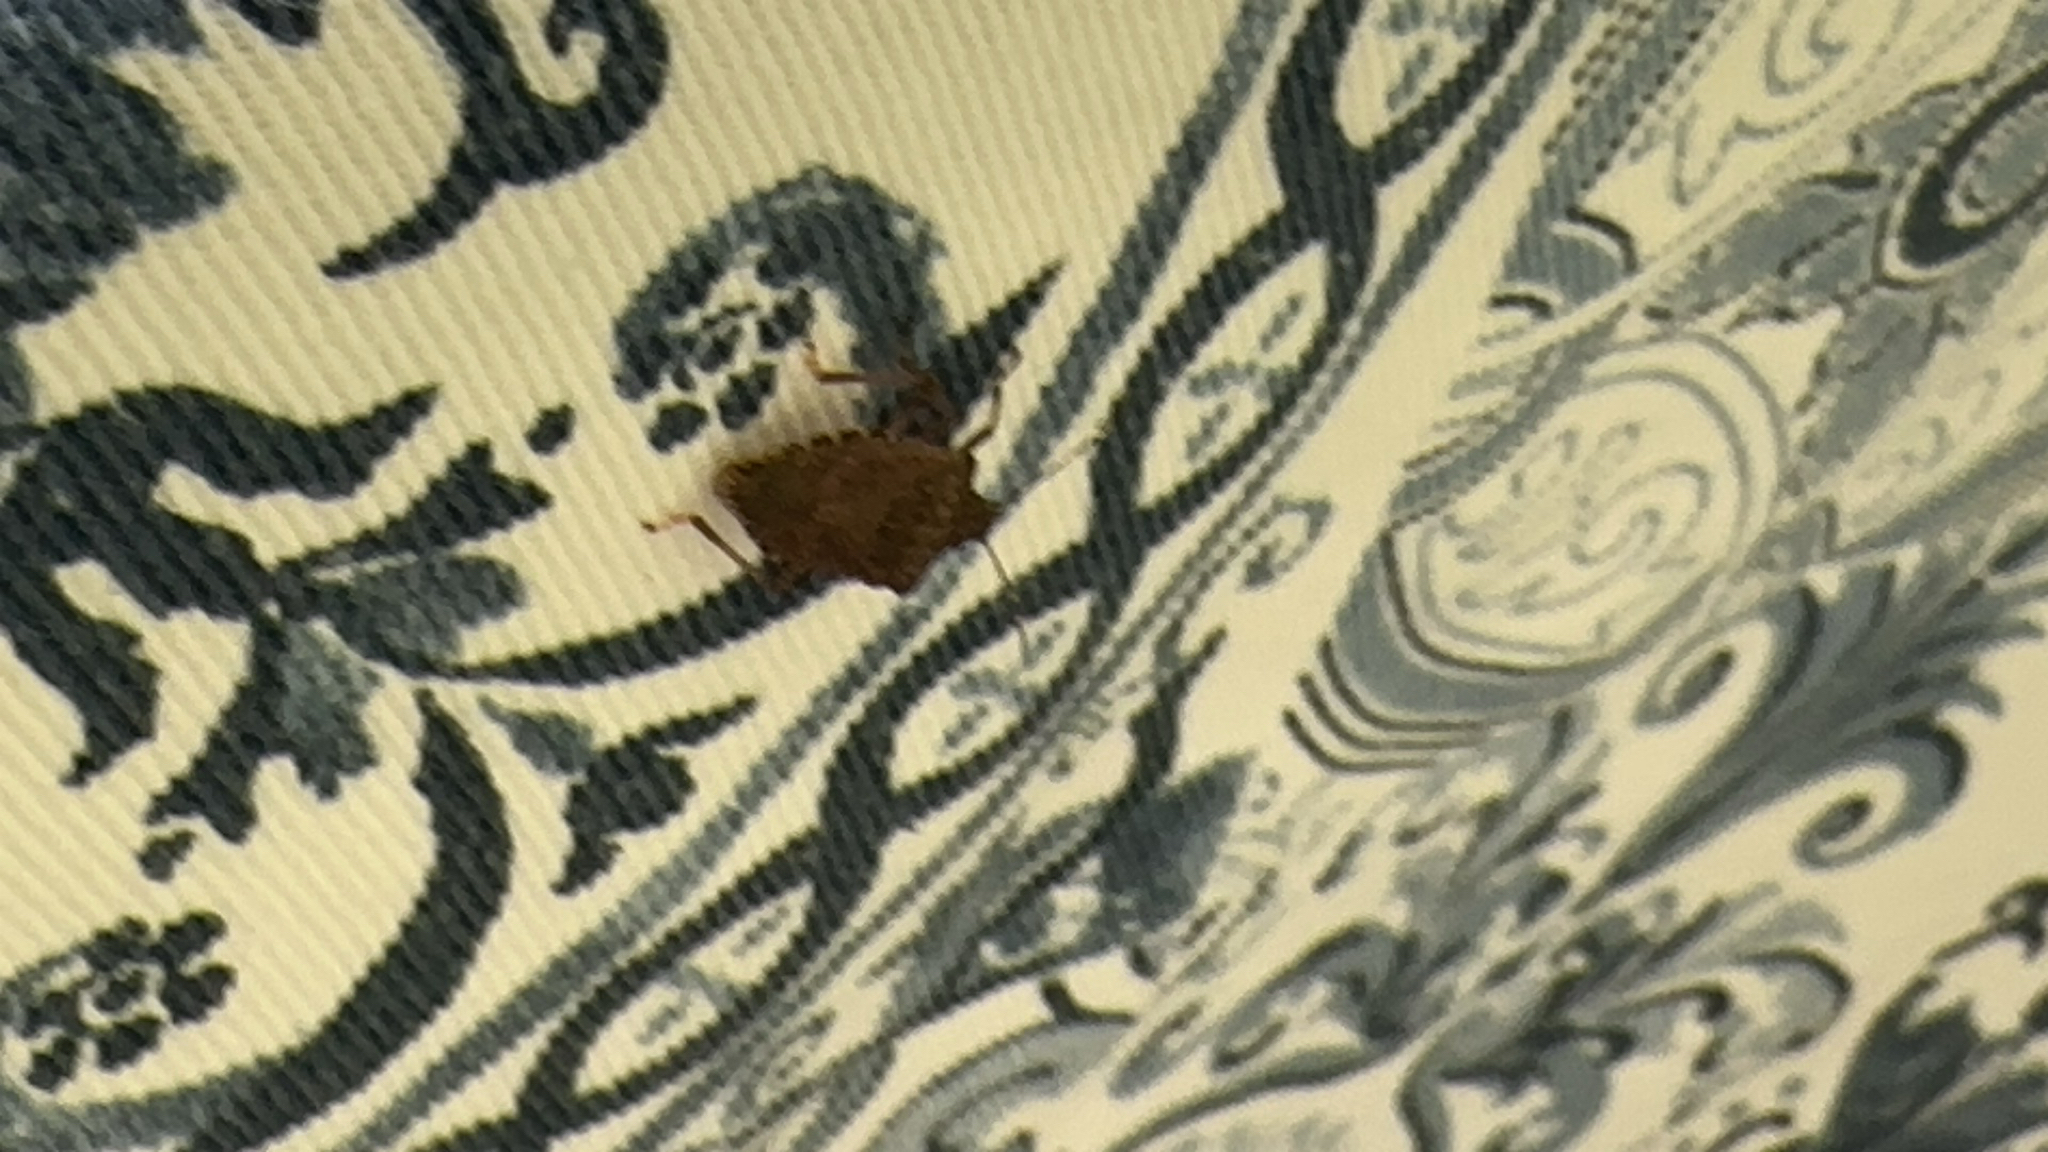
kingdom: Animalia
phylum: Arthropoda
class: Insecta
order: Hemiptera
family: Pentatomidae
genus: Halyomorpha
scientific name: Halyomorpha halys
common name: Brown marmorated stink bug
